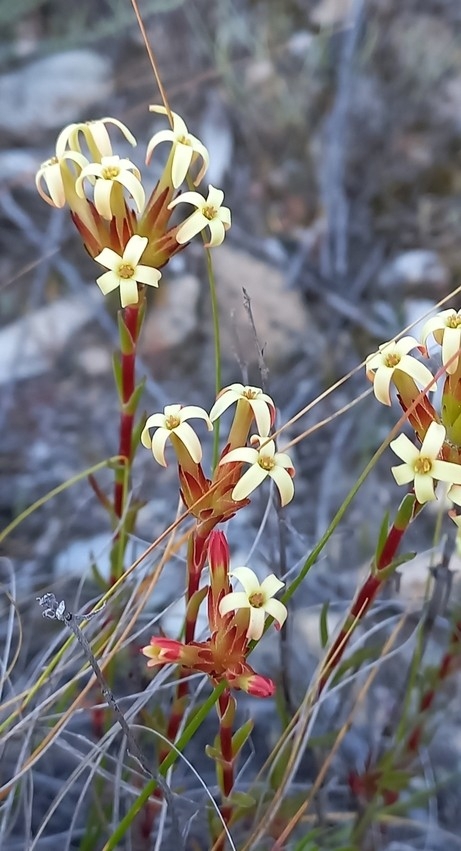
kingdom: Plantae
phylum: Tracheophyta
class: Magnoliopsida
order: Saxifragales
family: Crassulaceae
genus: Crassula
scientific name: Crassula fascicularis
